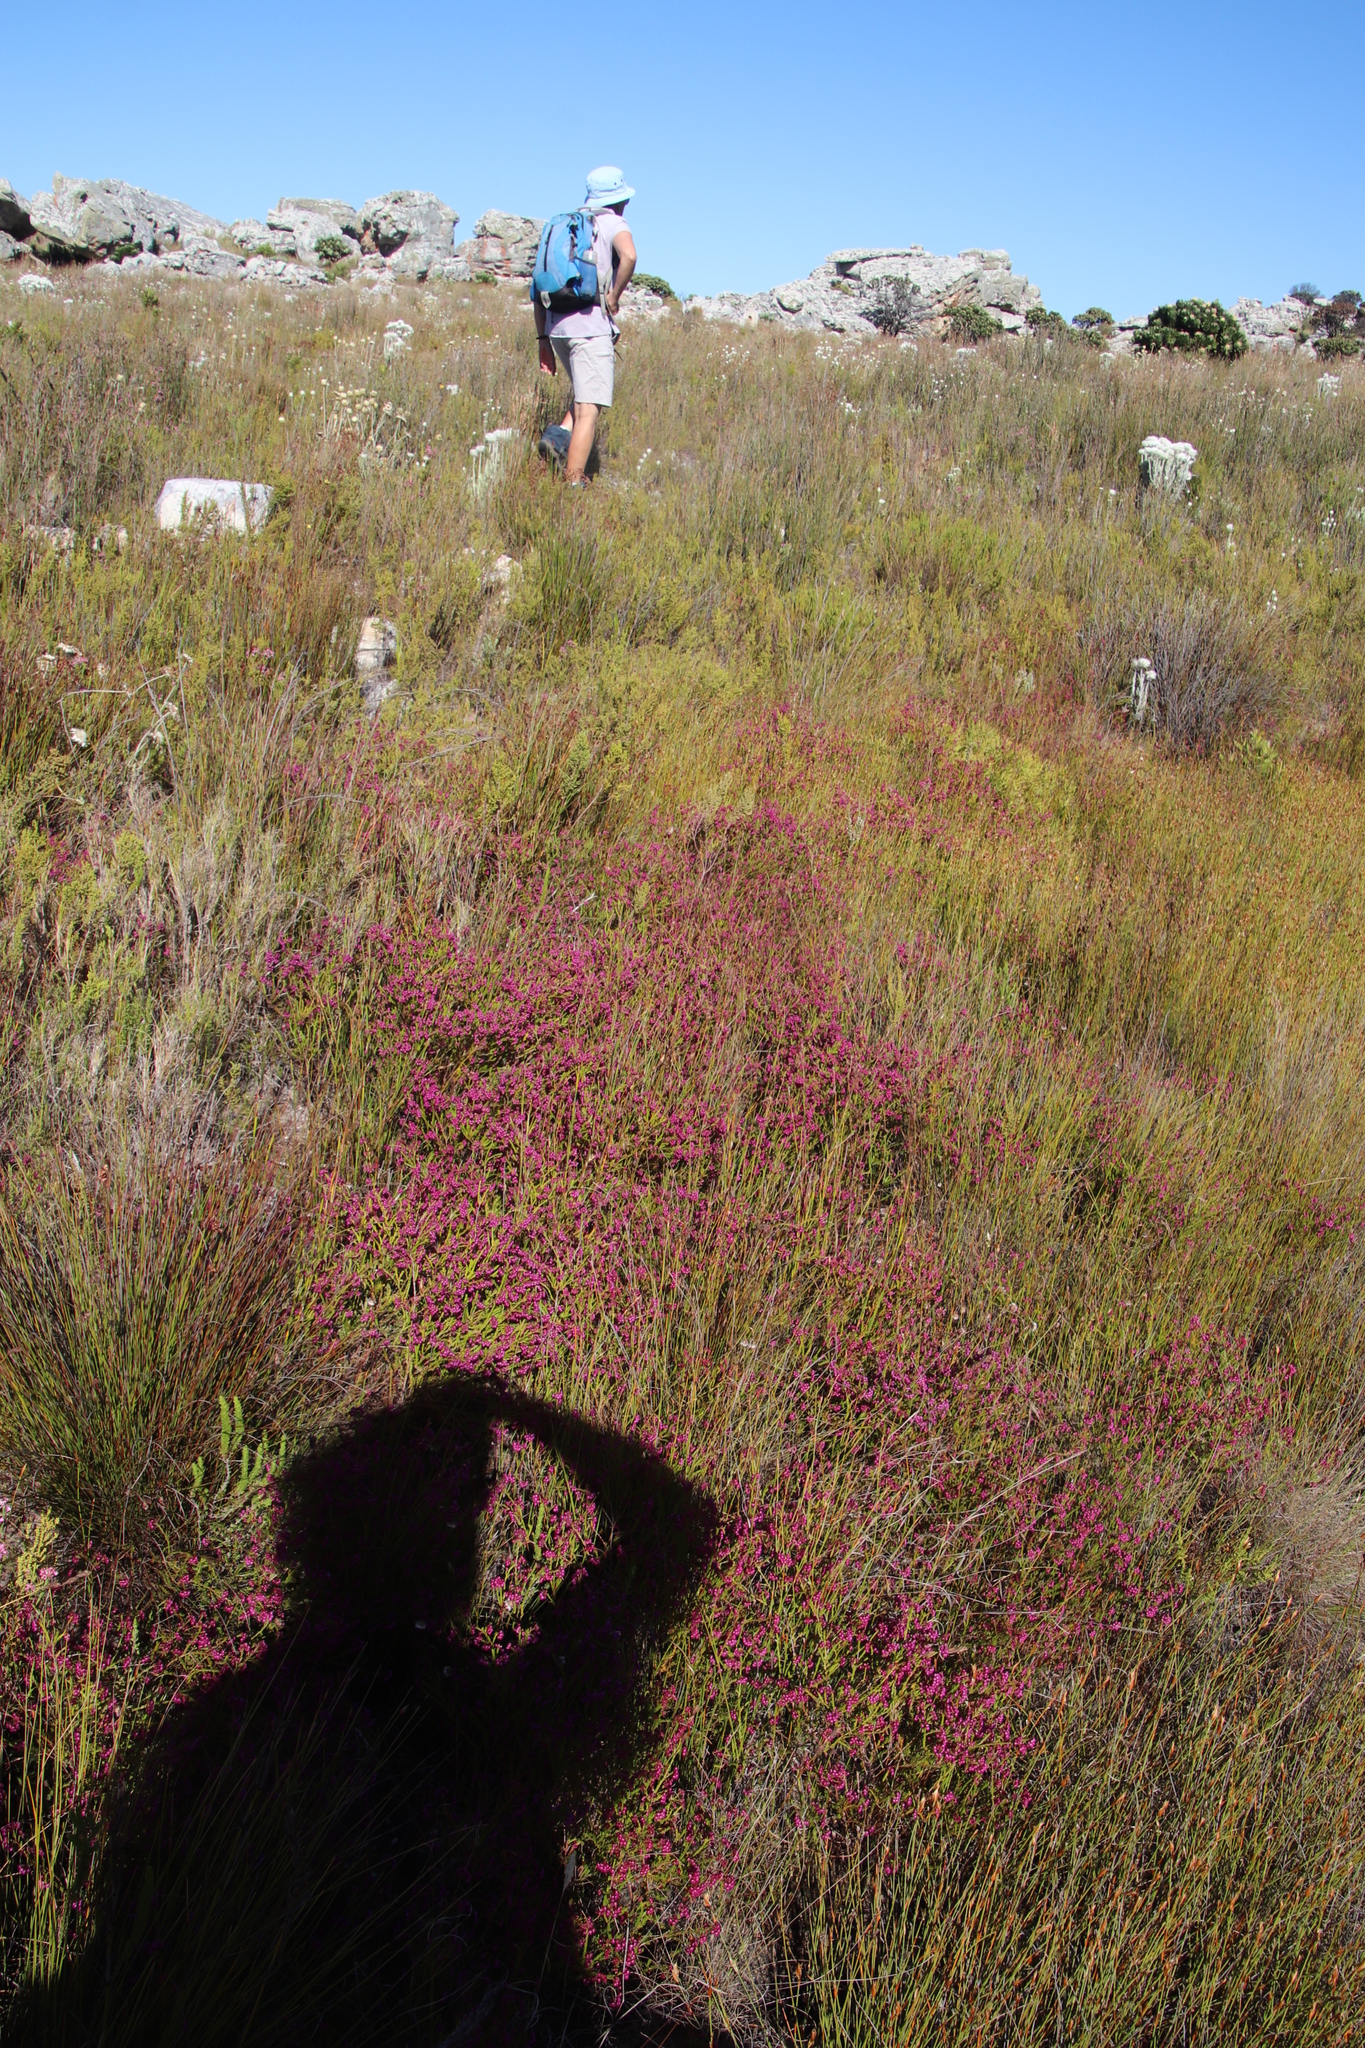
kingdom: Plantae
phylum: Tracheophyta
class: Magnoliopsida
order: Ericales
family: Ericaceae
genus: Erica
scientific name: Erica multumbellifera
